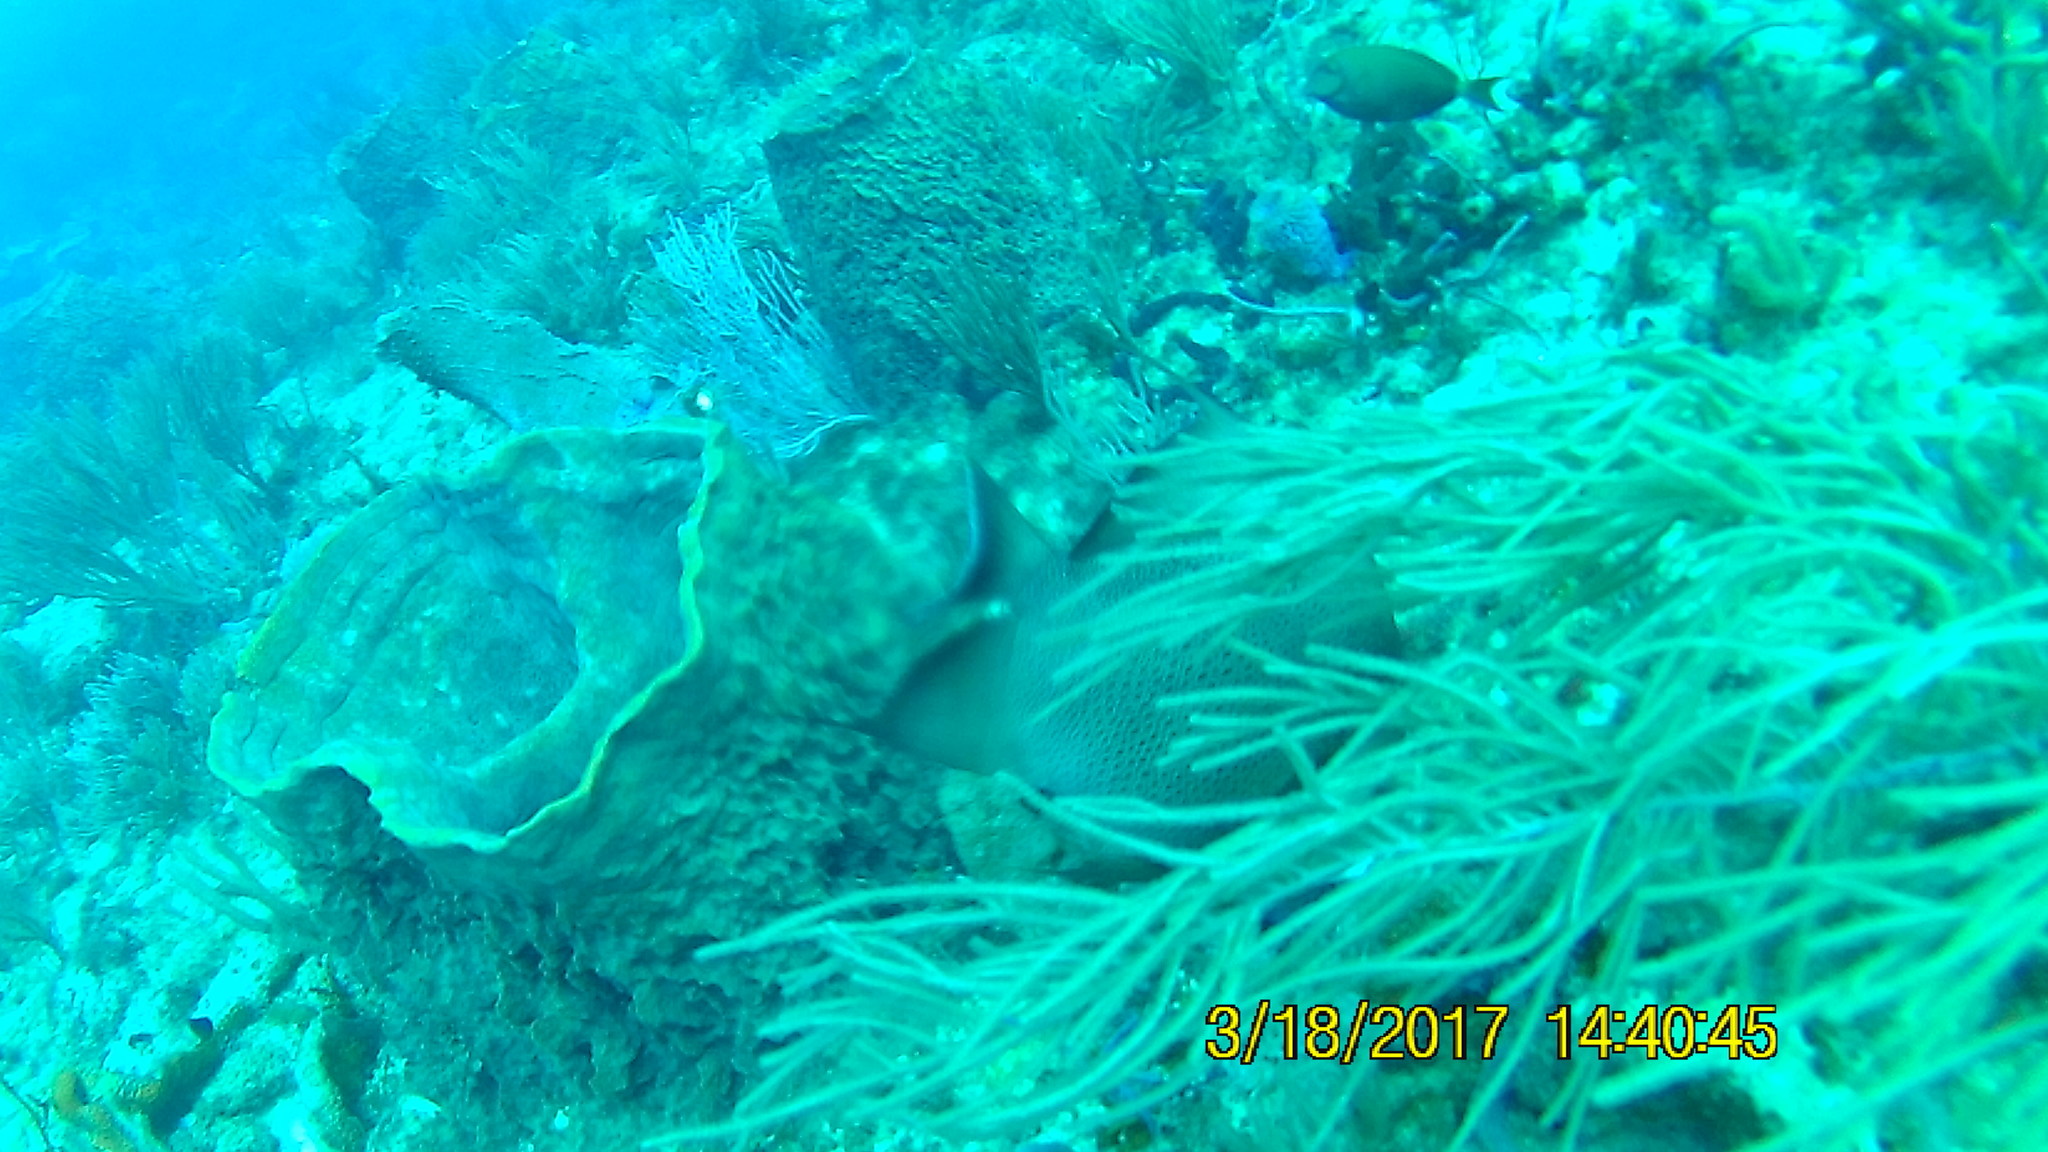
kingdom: Animalia
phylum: Chordata
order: Perciformes
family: Pomacanthidae
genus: Pomacanthus
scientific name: Pomacanthus arcuatus
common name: Gray angelfish
